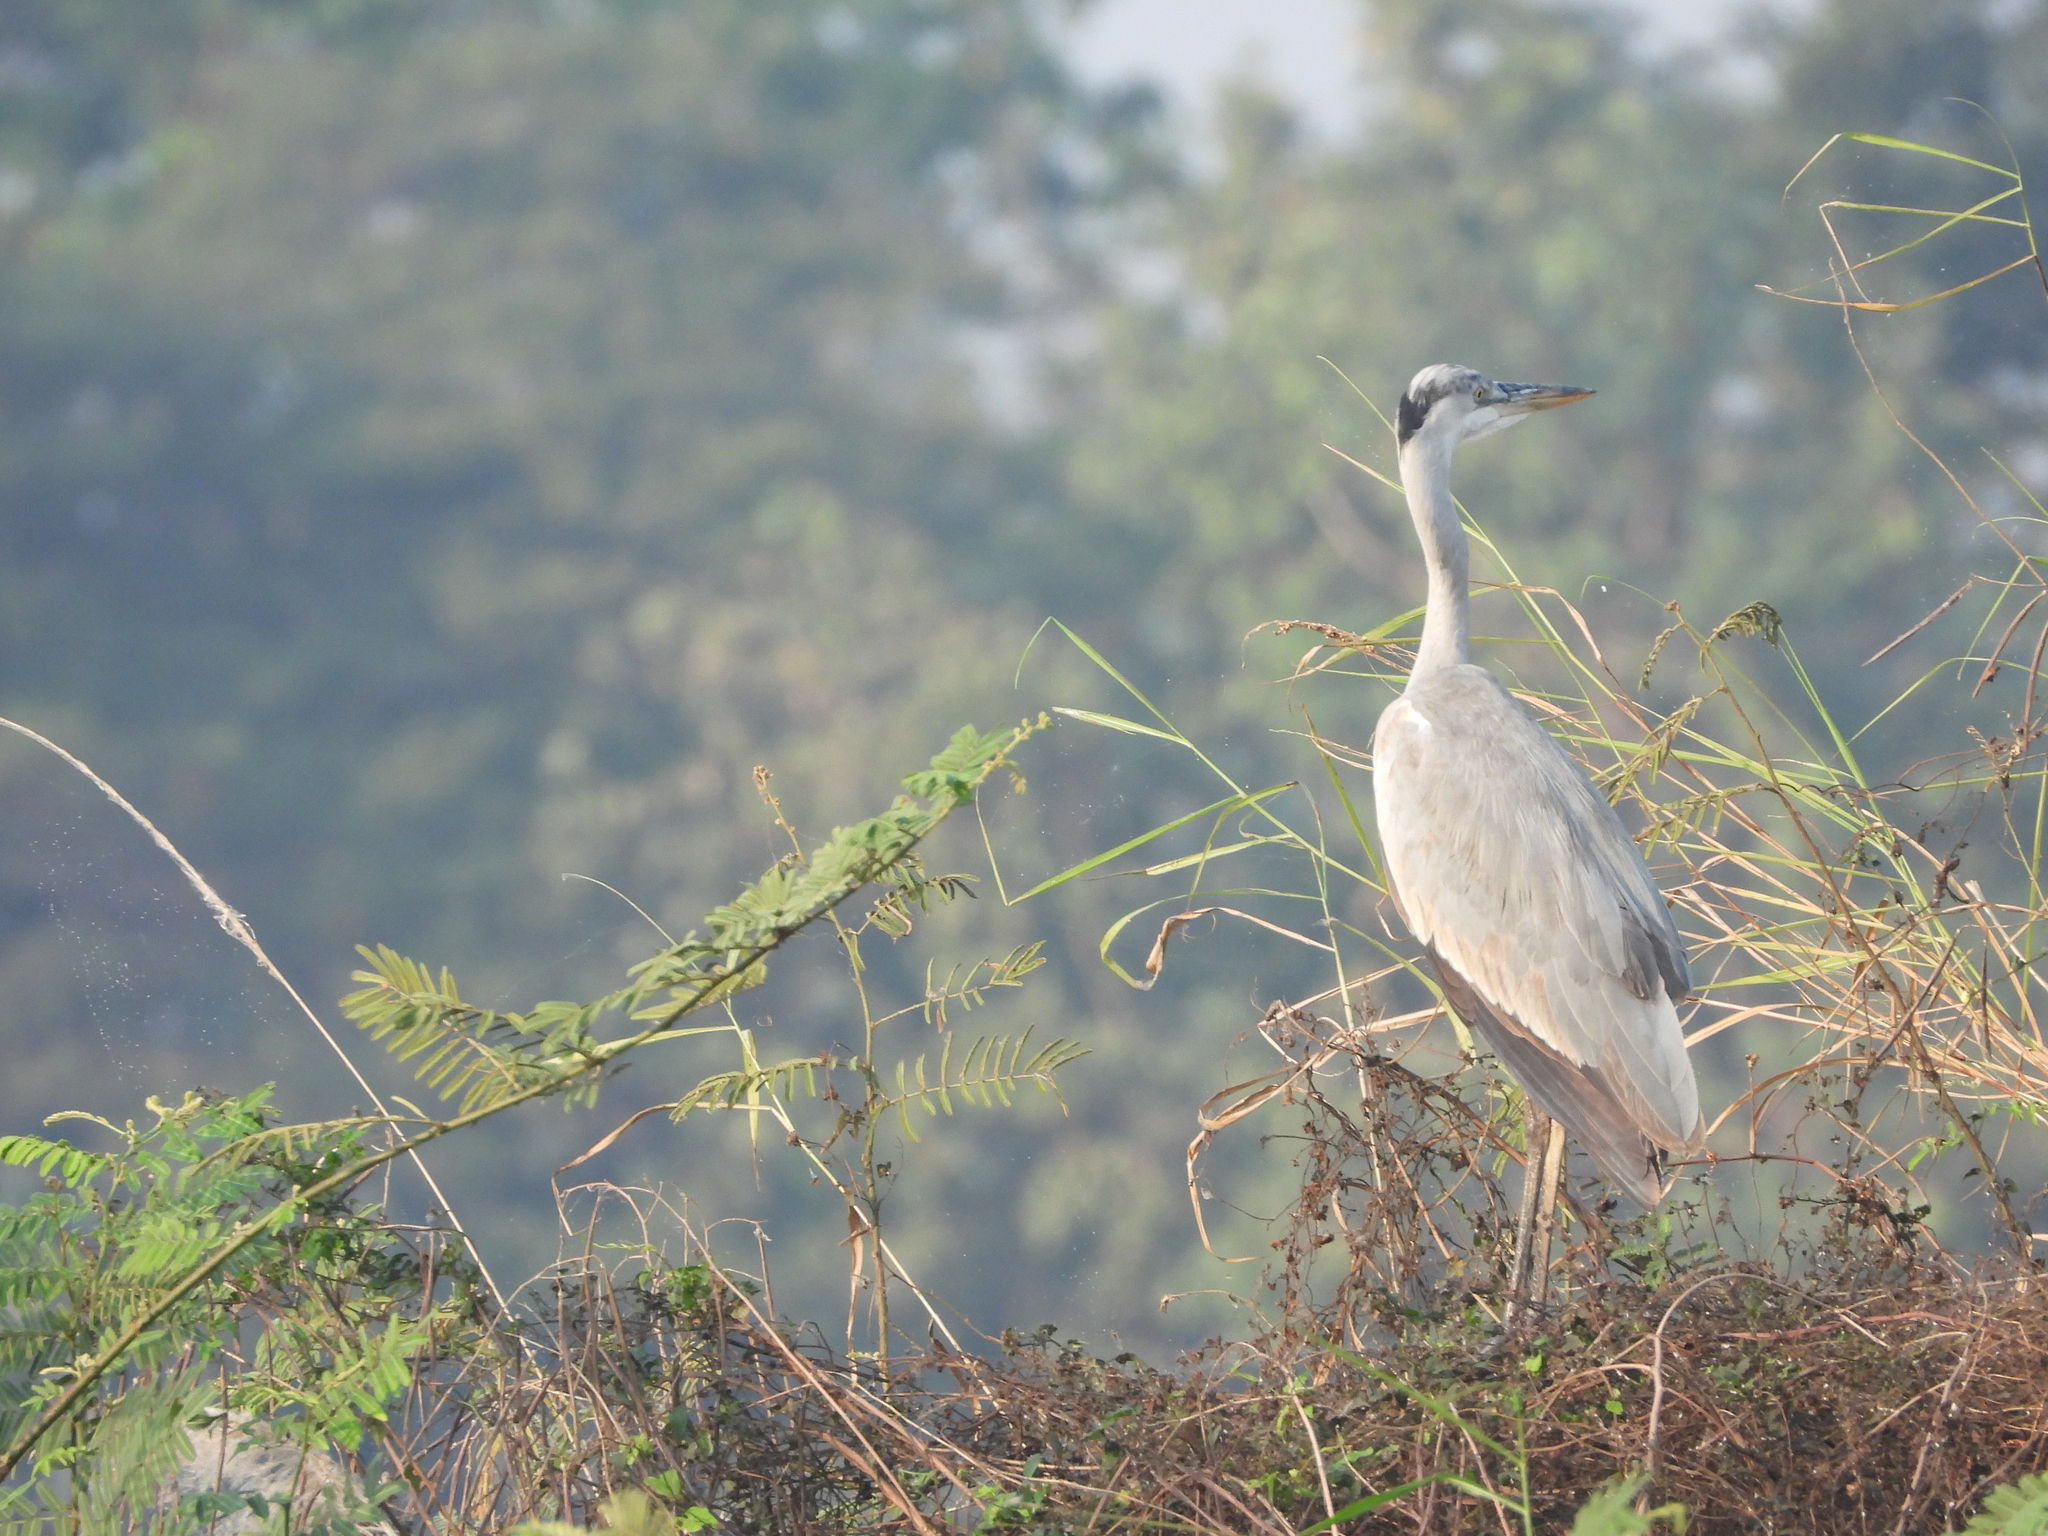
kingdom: Animalia
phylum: Chordata
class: Aves
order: Pelecaniformes
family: Ardeidae
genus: Ardea
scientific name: Ardea cinerea
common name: Grey heron
